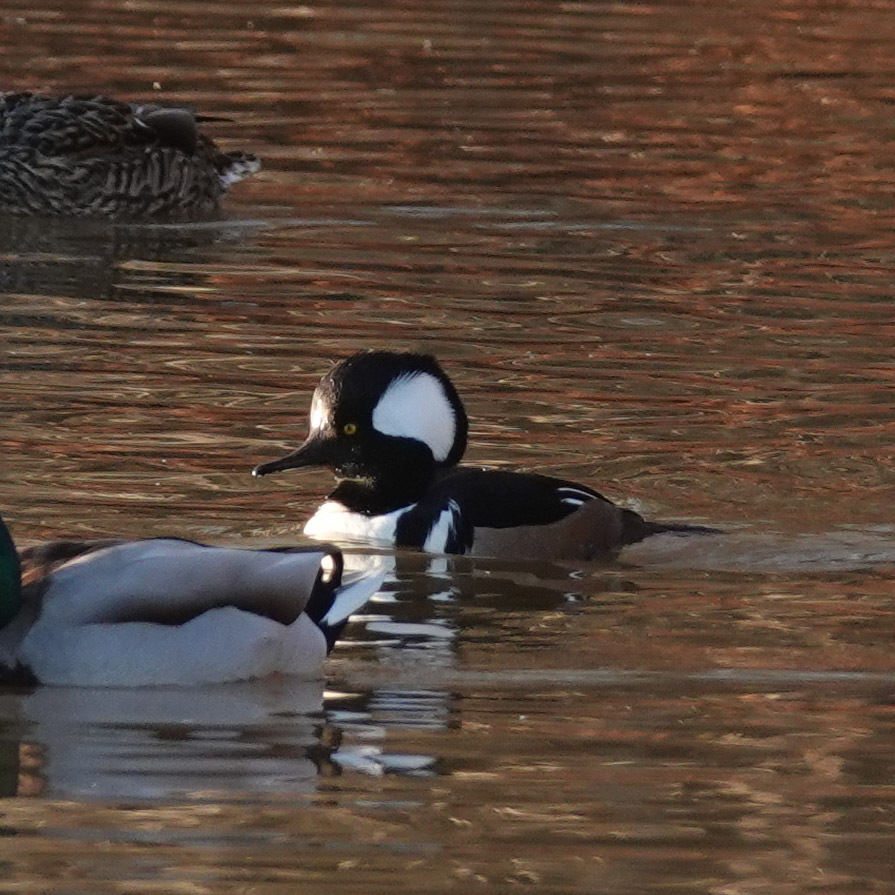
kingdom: Animalia
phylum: Chordata
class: Aves
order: Anseriformes
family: Anatidae
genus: Lophodytes
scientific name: Lophodytes cucullatus
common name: Hooded merganser
